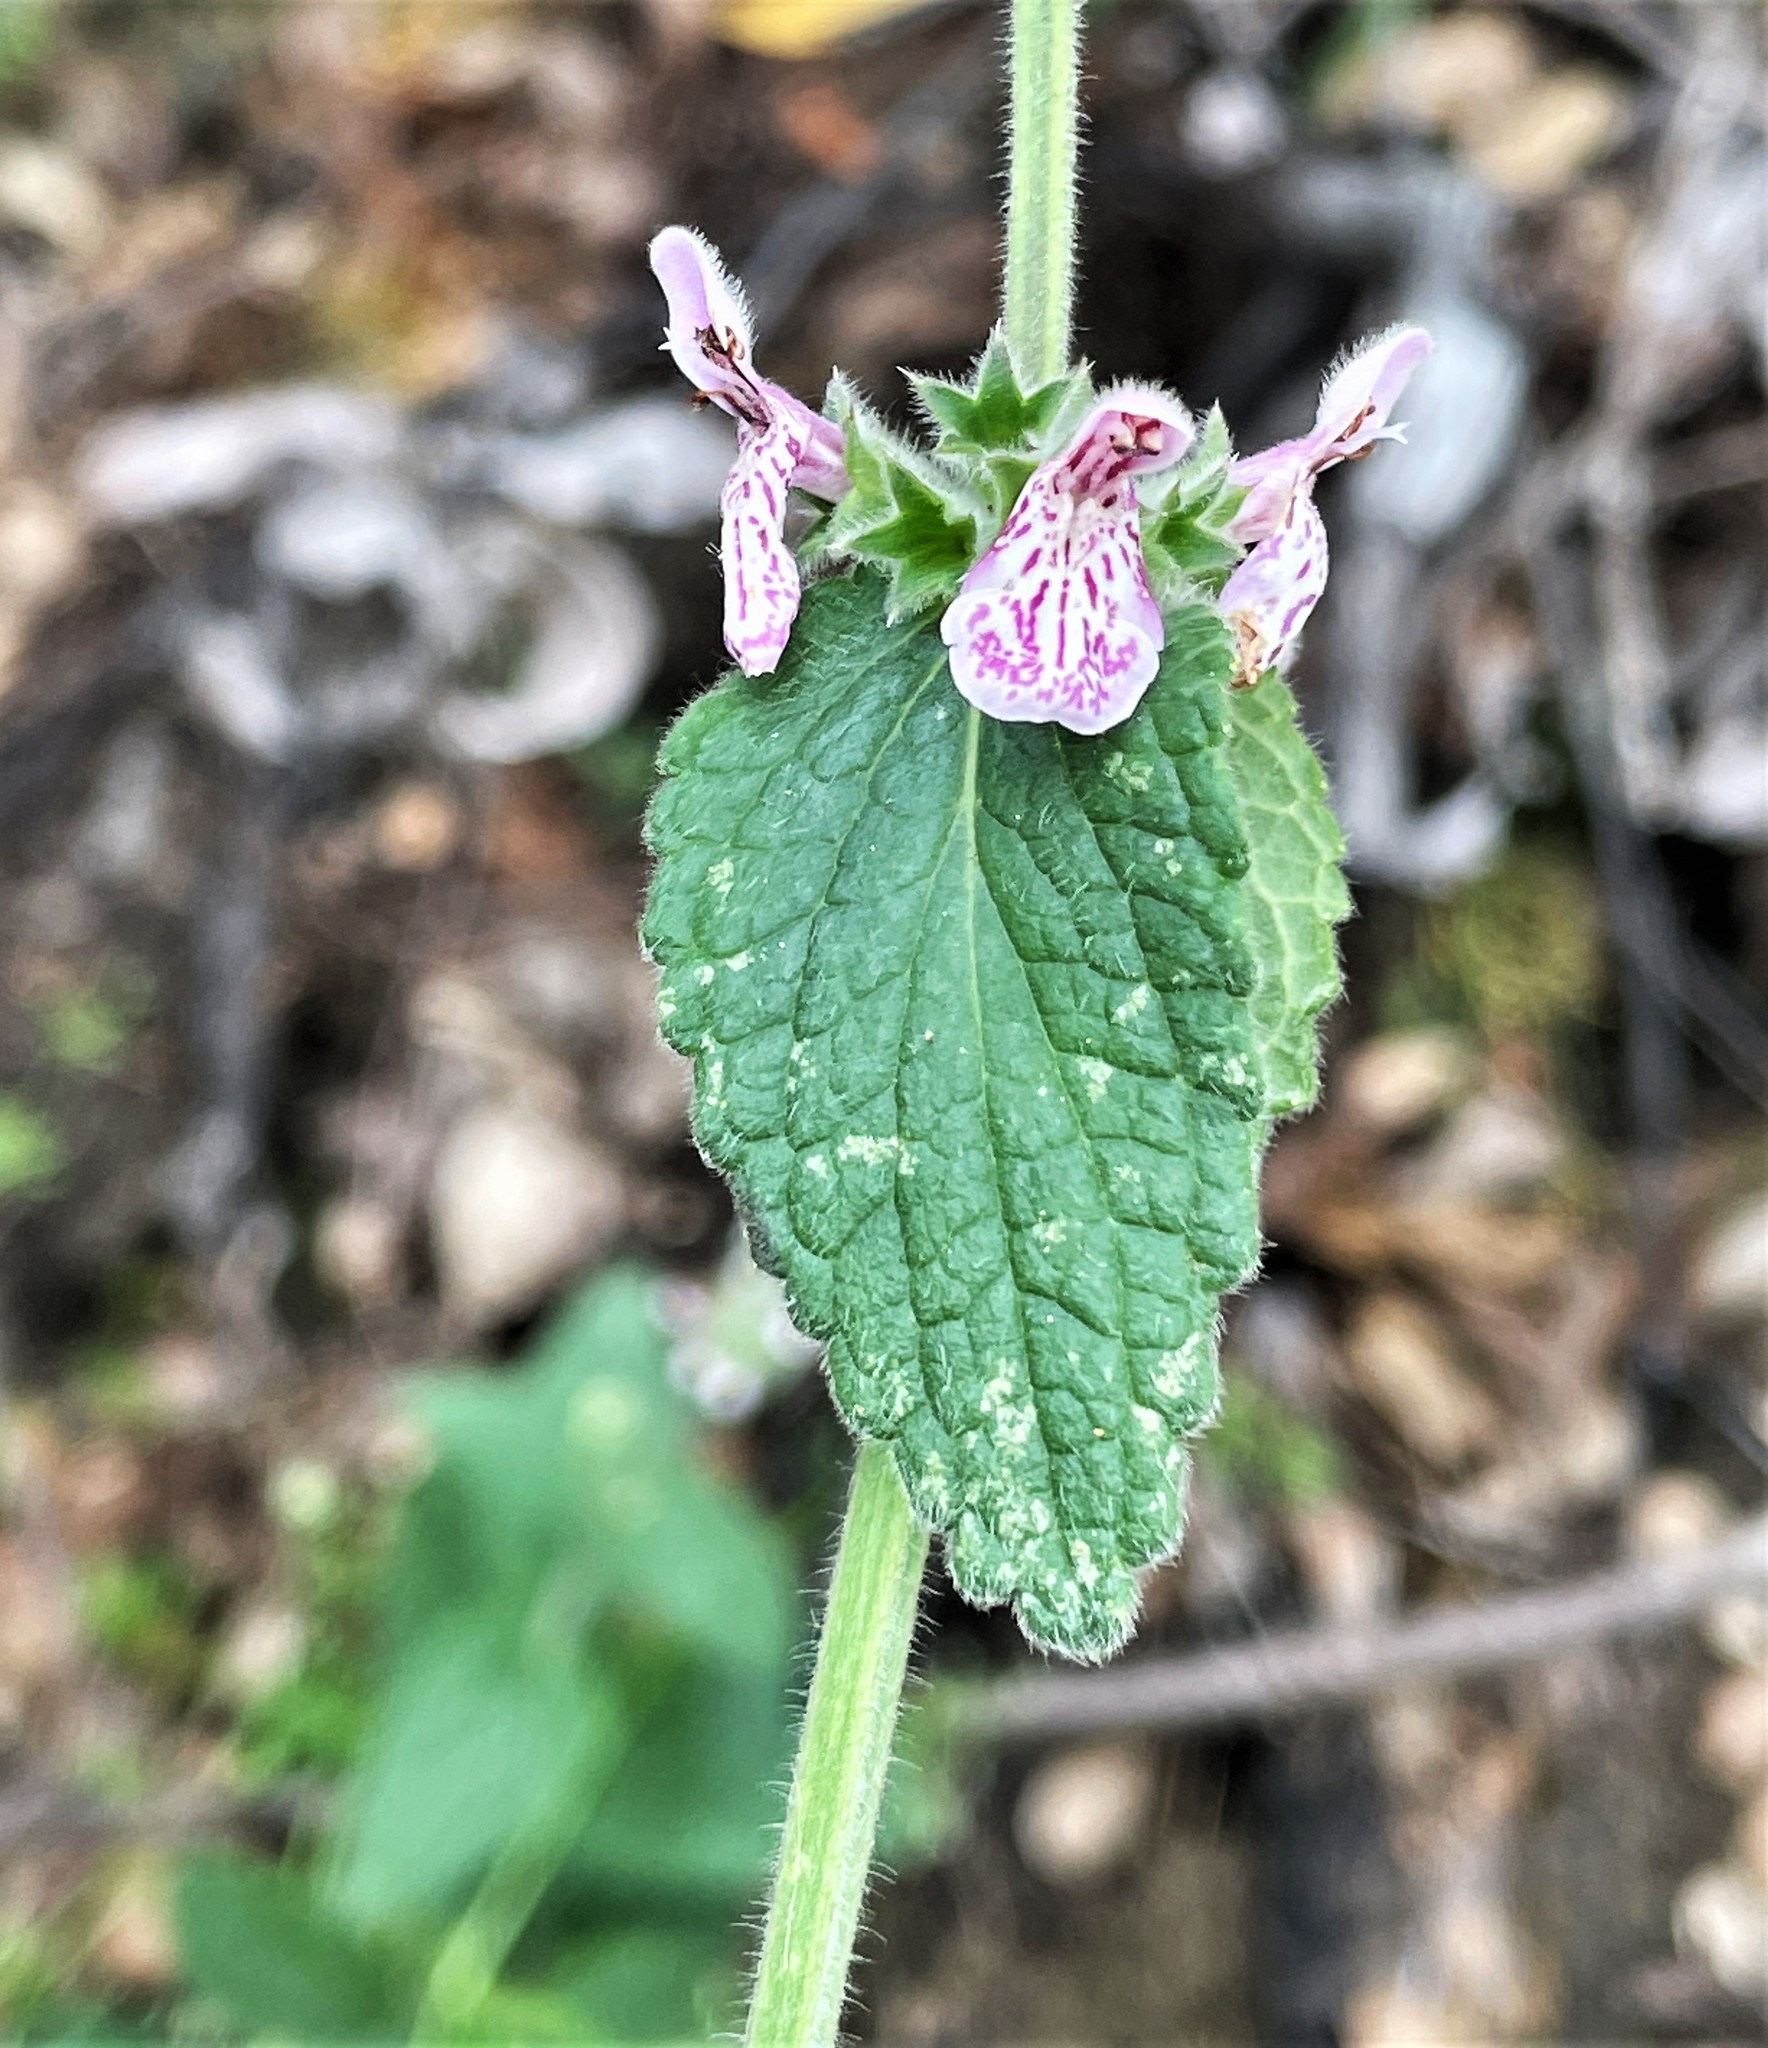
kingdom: Plantae
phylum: Tracheophyta
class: Magnoliopsida
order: Lamiales
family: Lamiaceae
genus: Stachys
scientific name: Stachys rigida
